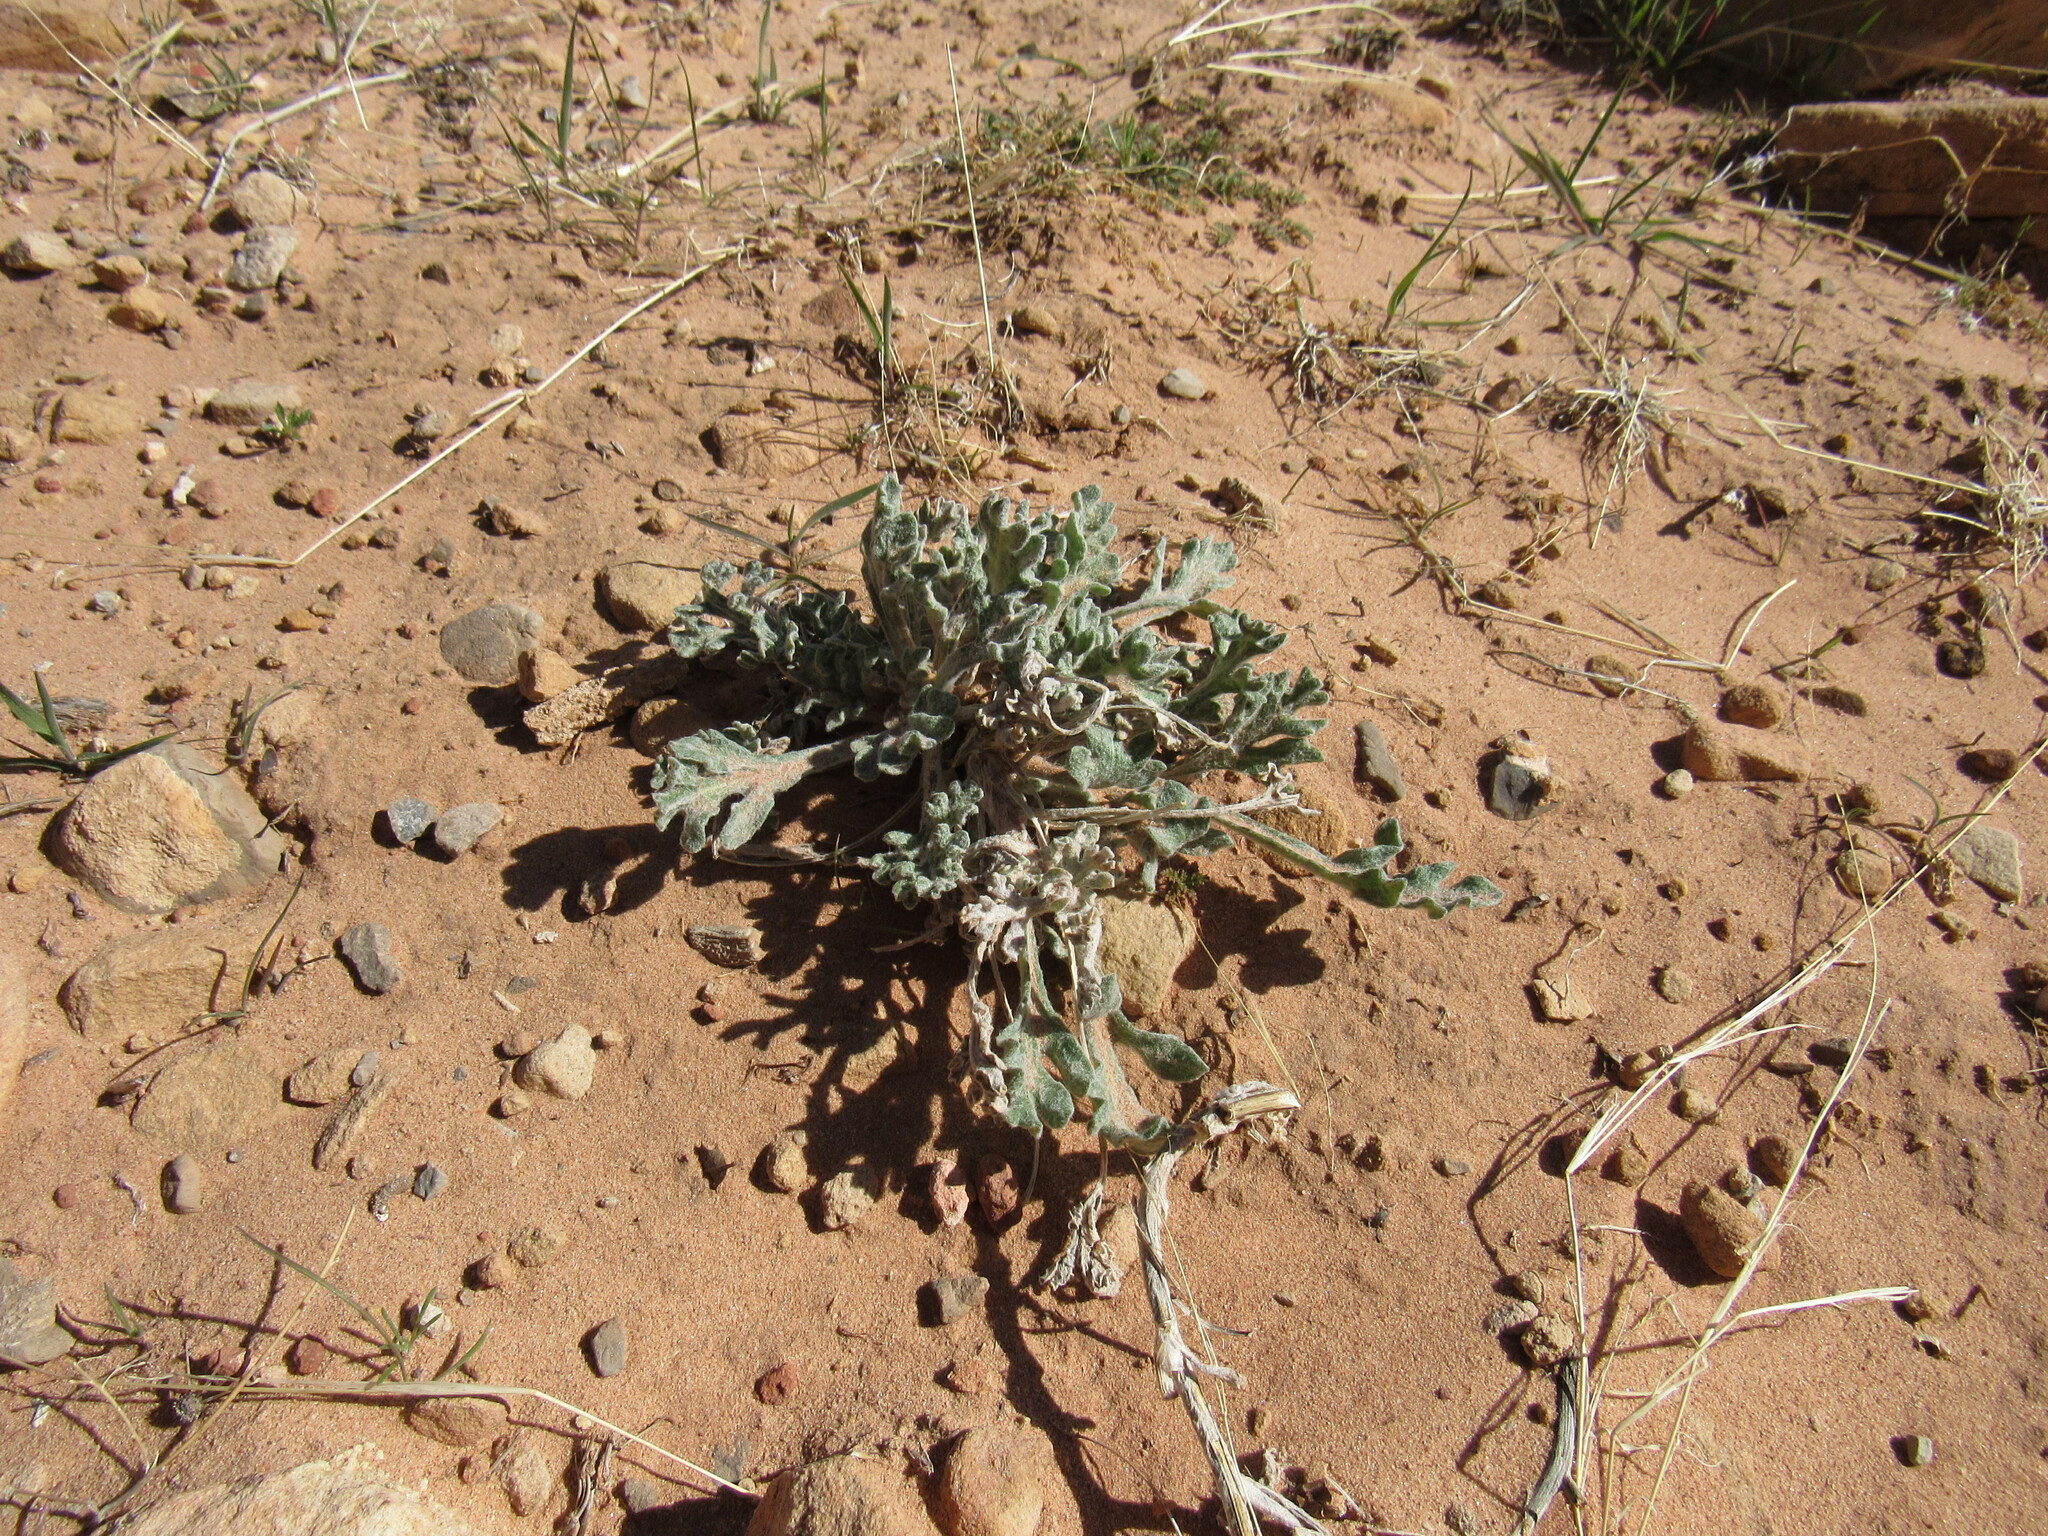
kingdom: Plantae
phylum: Tracheophyta
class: Magnoliopsida
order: Asterales
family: Asteraceae
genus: Baileya
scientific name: Baileya multiradiata
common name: Desert-marigold
